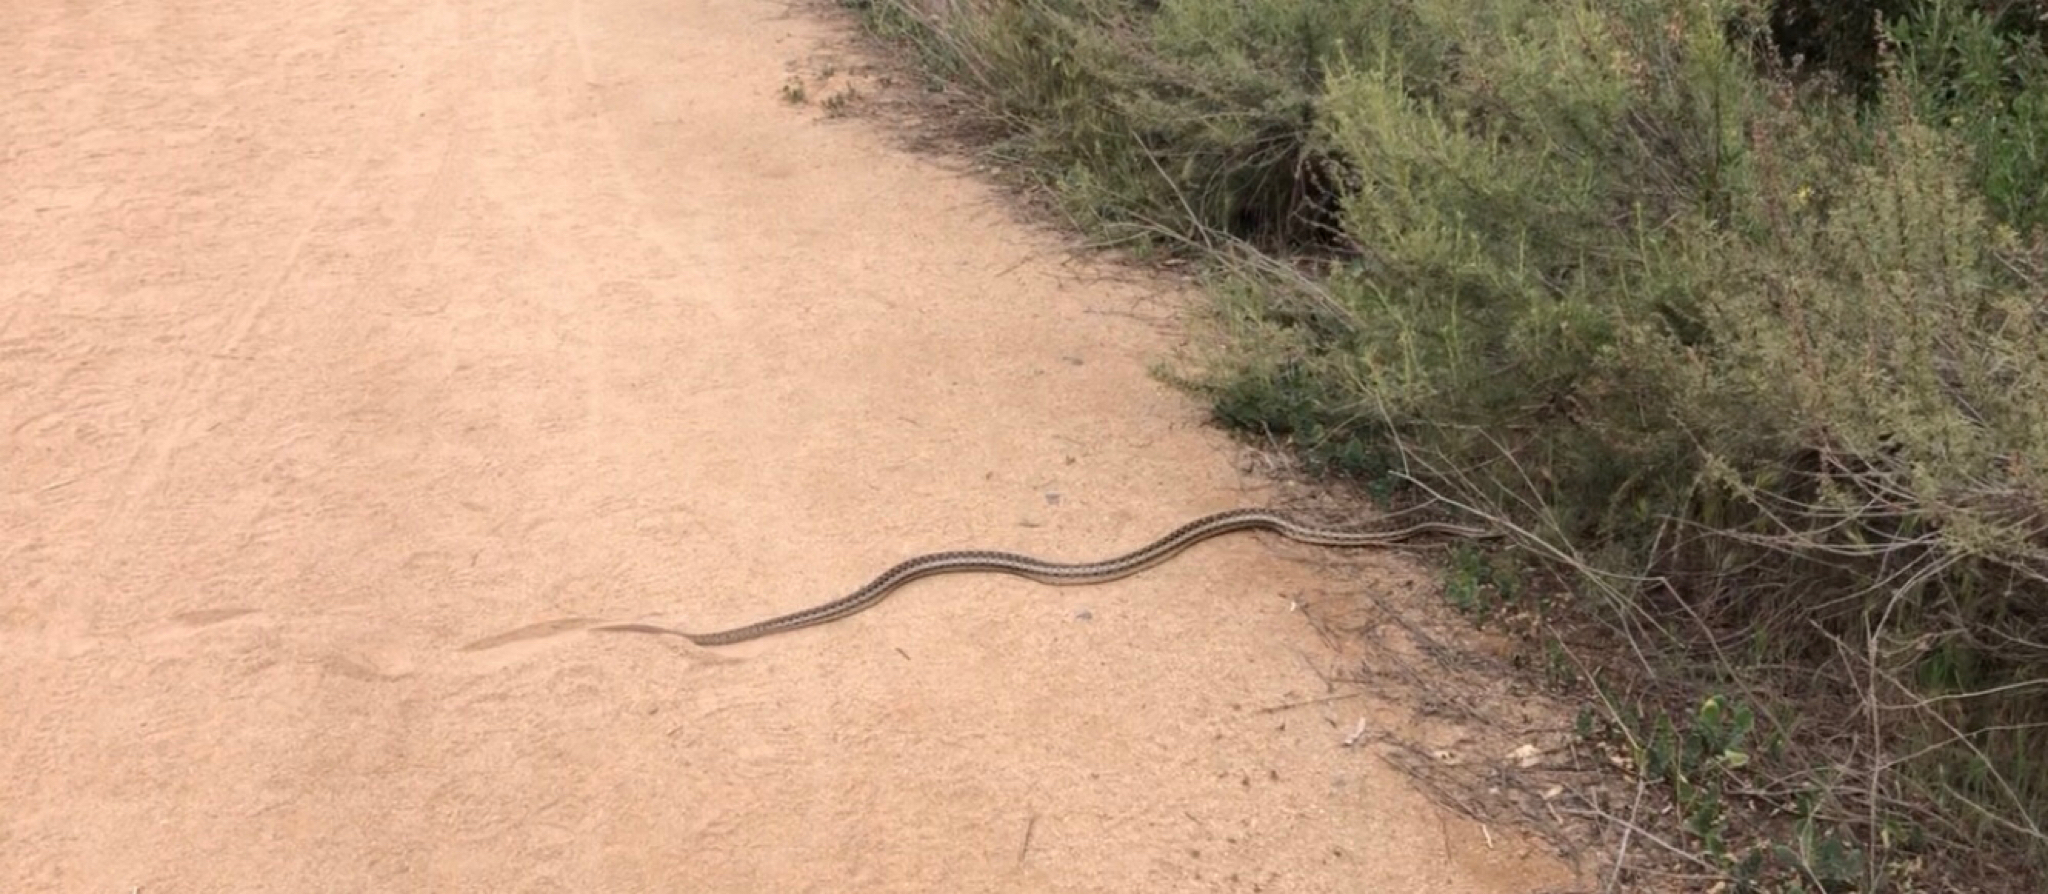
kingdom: Animalia
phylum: Chordata
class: Squamata
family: Colubridae
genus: Pituophis
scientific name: Pituophis catenifer
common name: Gopher snake
